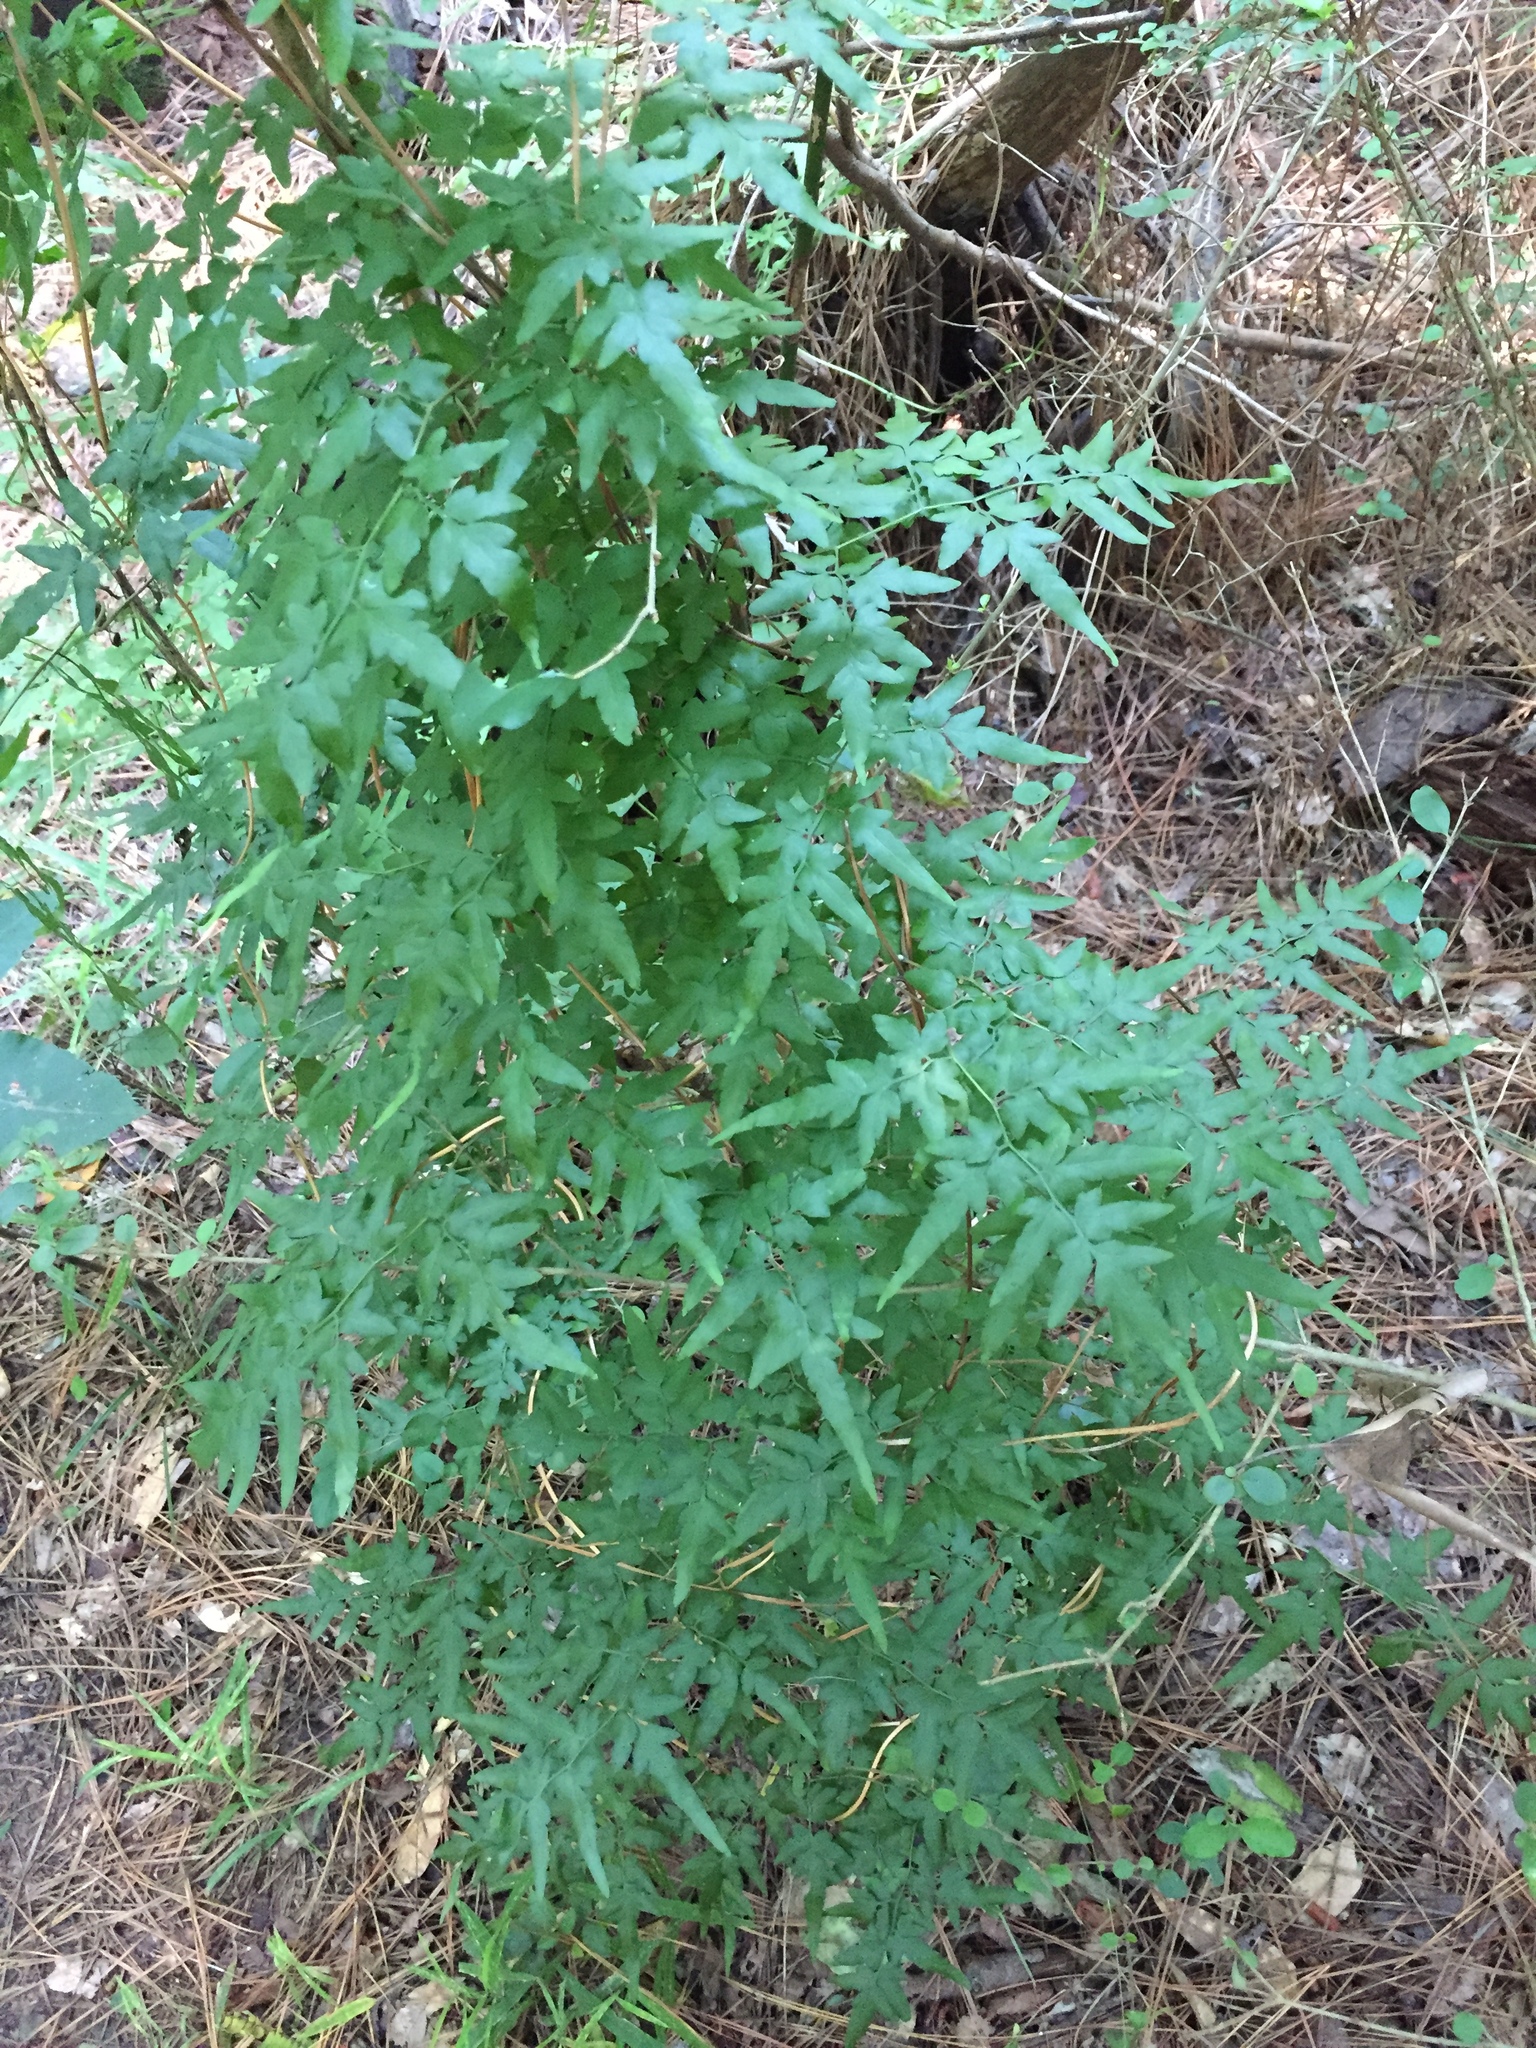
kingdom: Plantae
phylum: Tracheophyta
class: Polypodiopsida
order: Schizaeales
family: Lygodiaceae
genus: Lygodium
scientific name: Lygodium japonicum
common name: Japanese climbing fern
